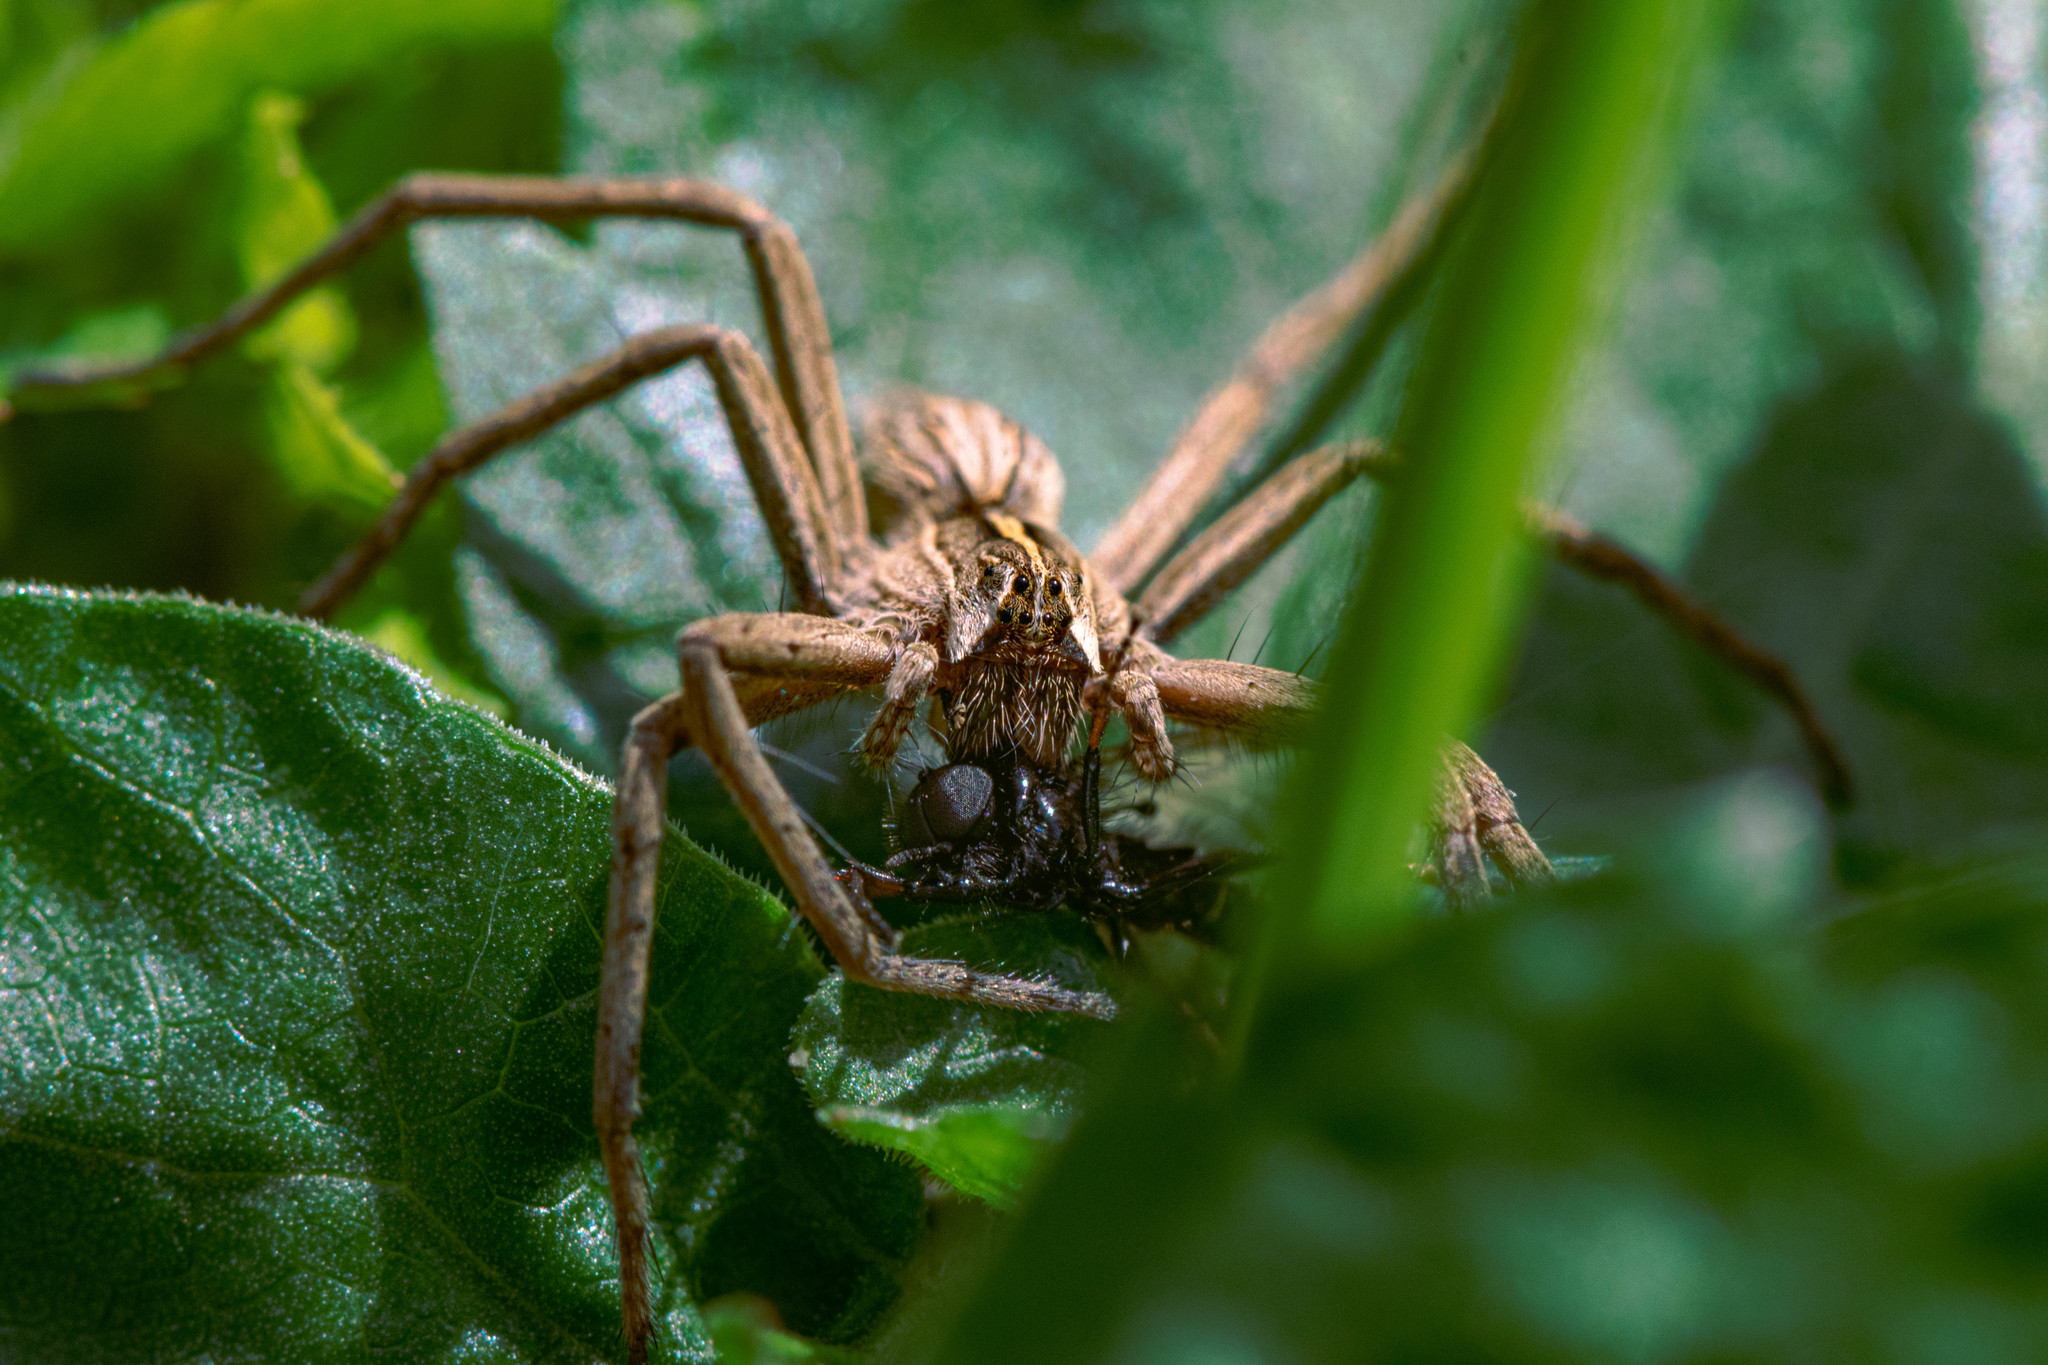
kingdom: Animalia
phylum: Arthropoda
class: Arachnida
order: Araneae
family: Pisauridae
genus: Pisaura
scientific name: Pisaura mirabilis
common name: Tent spider
